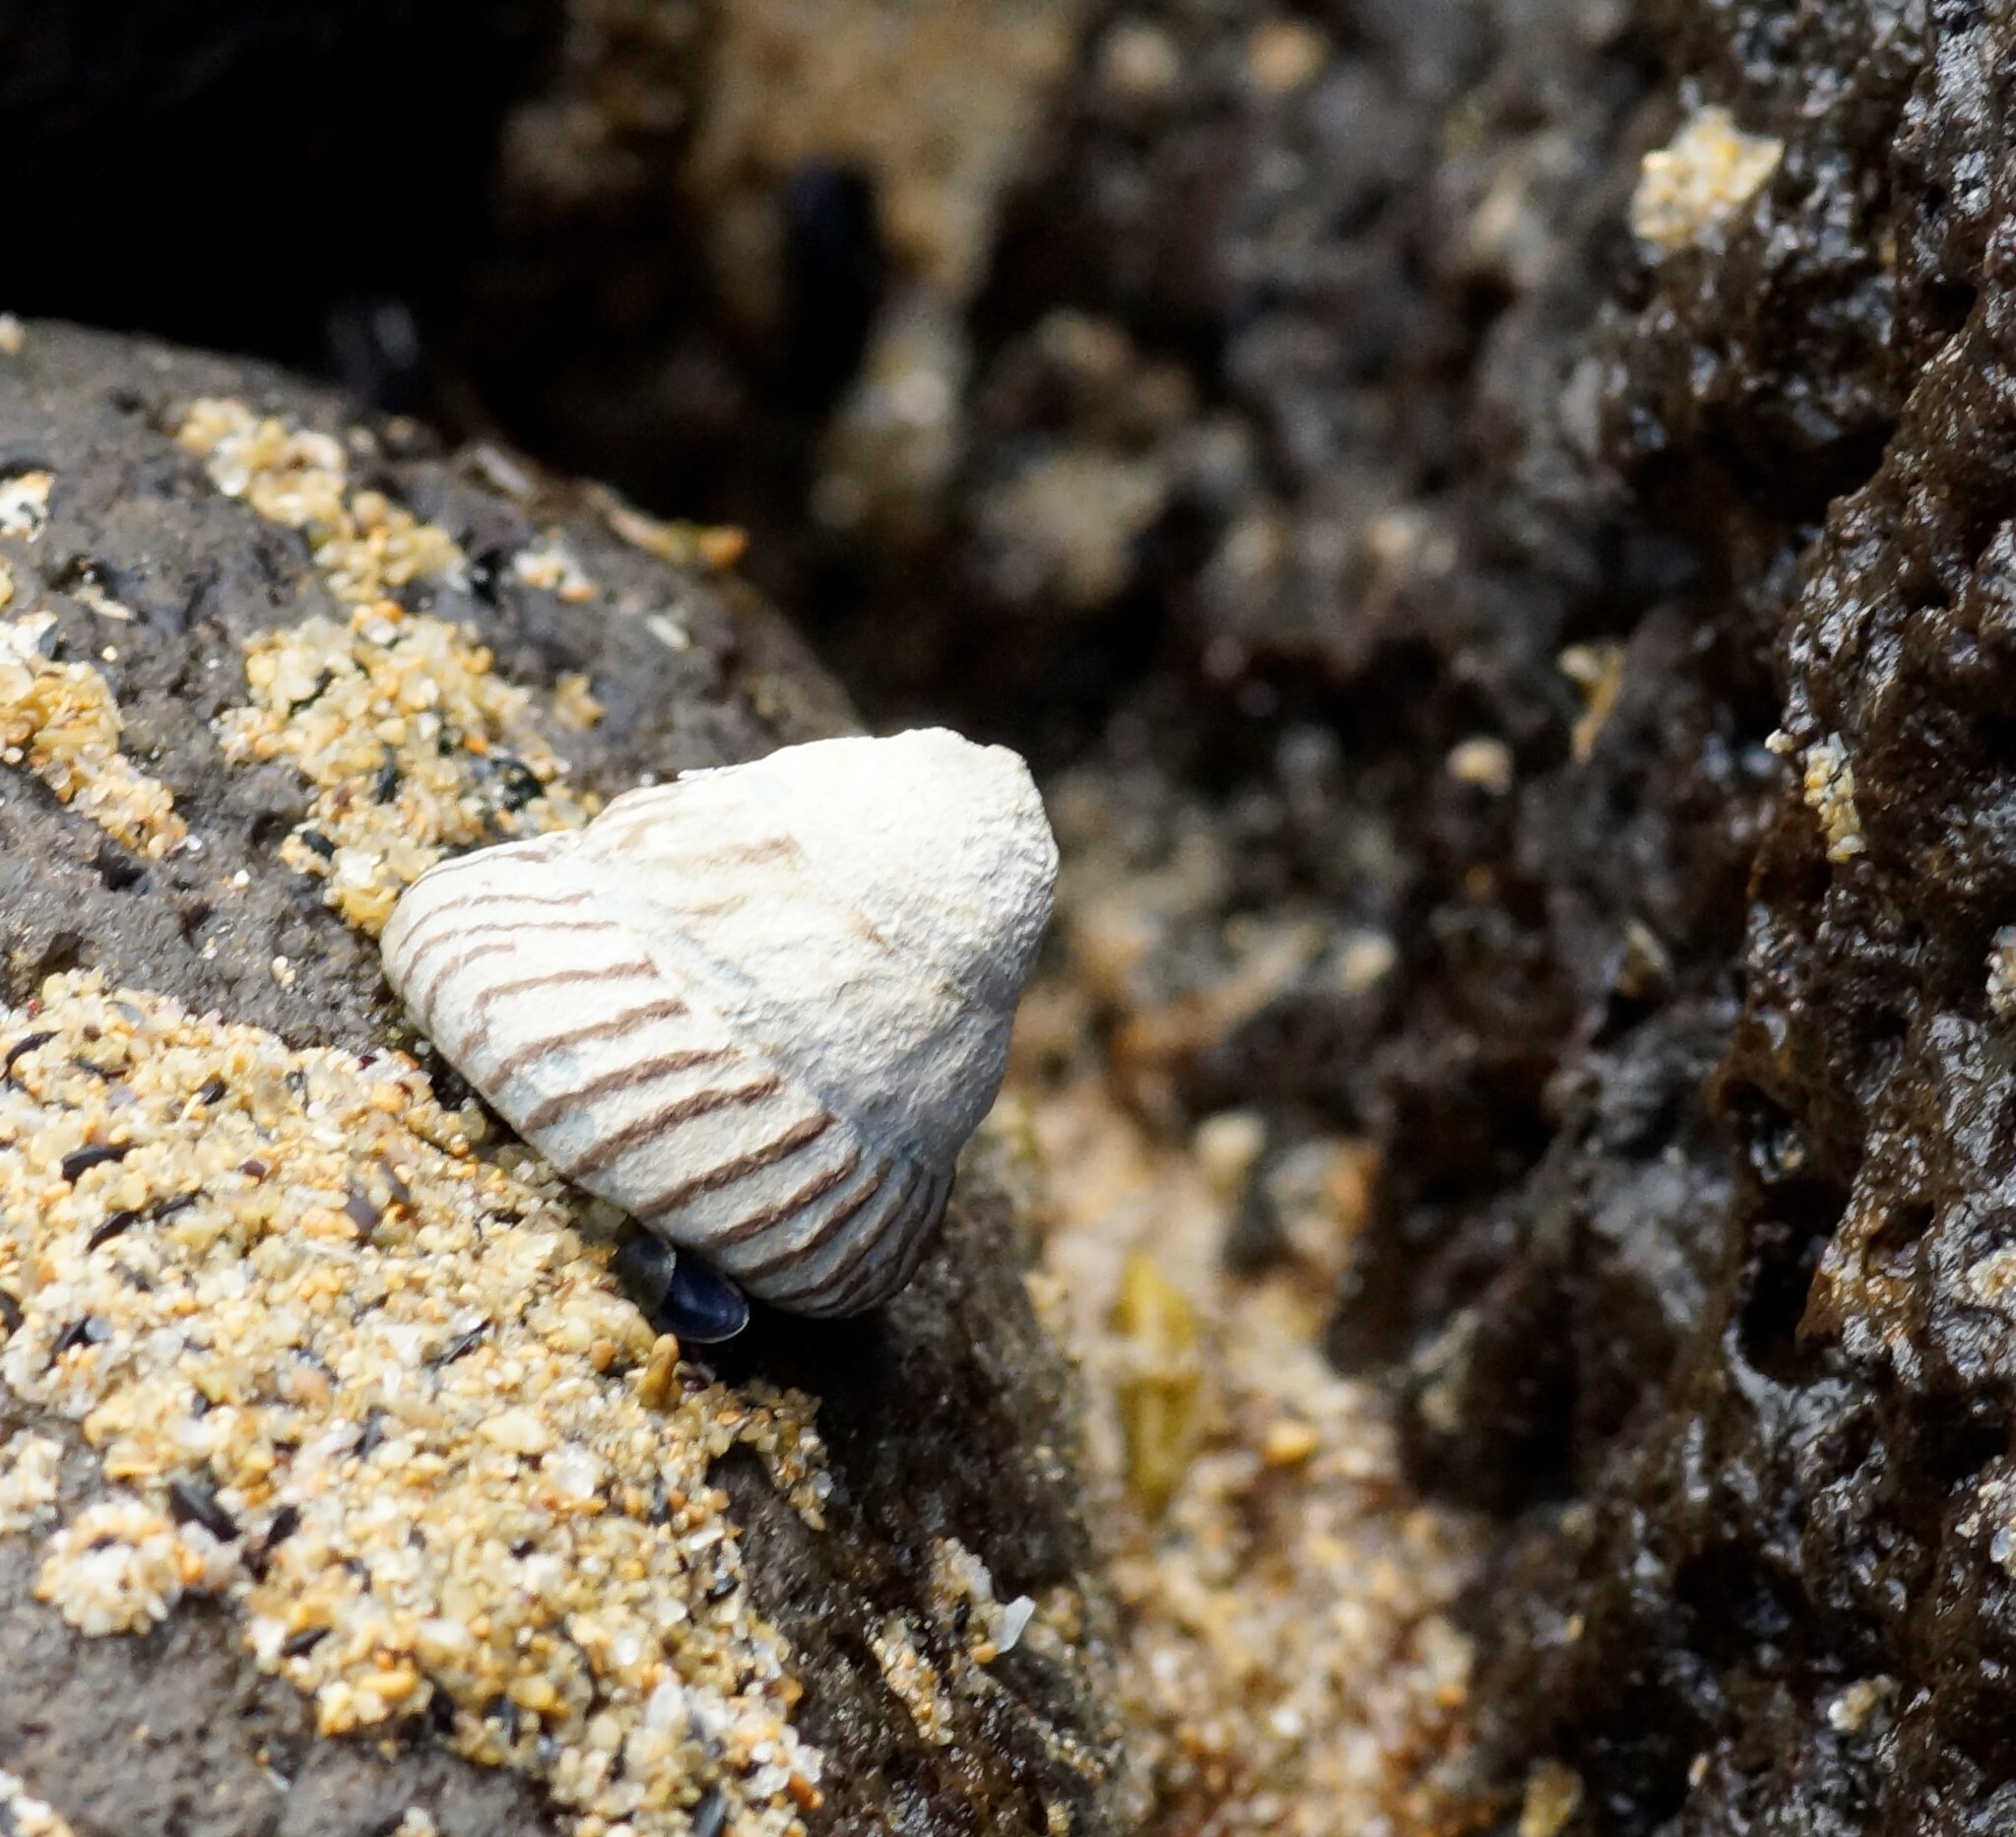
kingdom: Animalia
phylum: Mollusca
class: Gastropoda
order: Littorinimorpha
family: Littorinidae
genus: Bembicium
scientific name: Bembicium nanum
